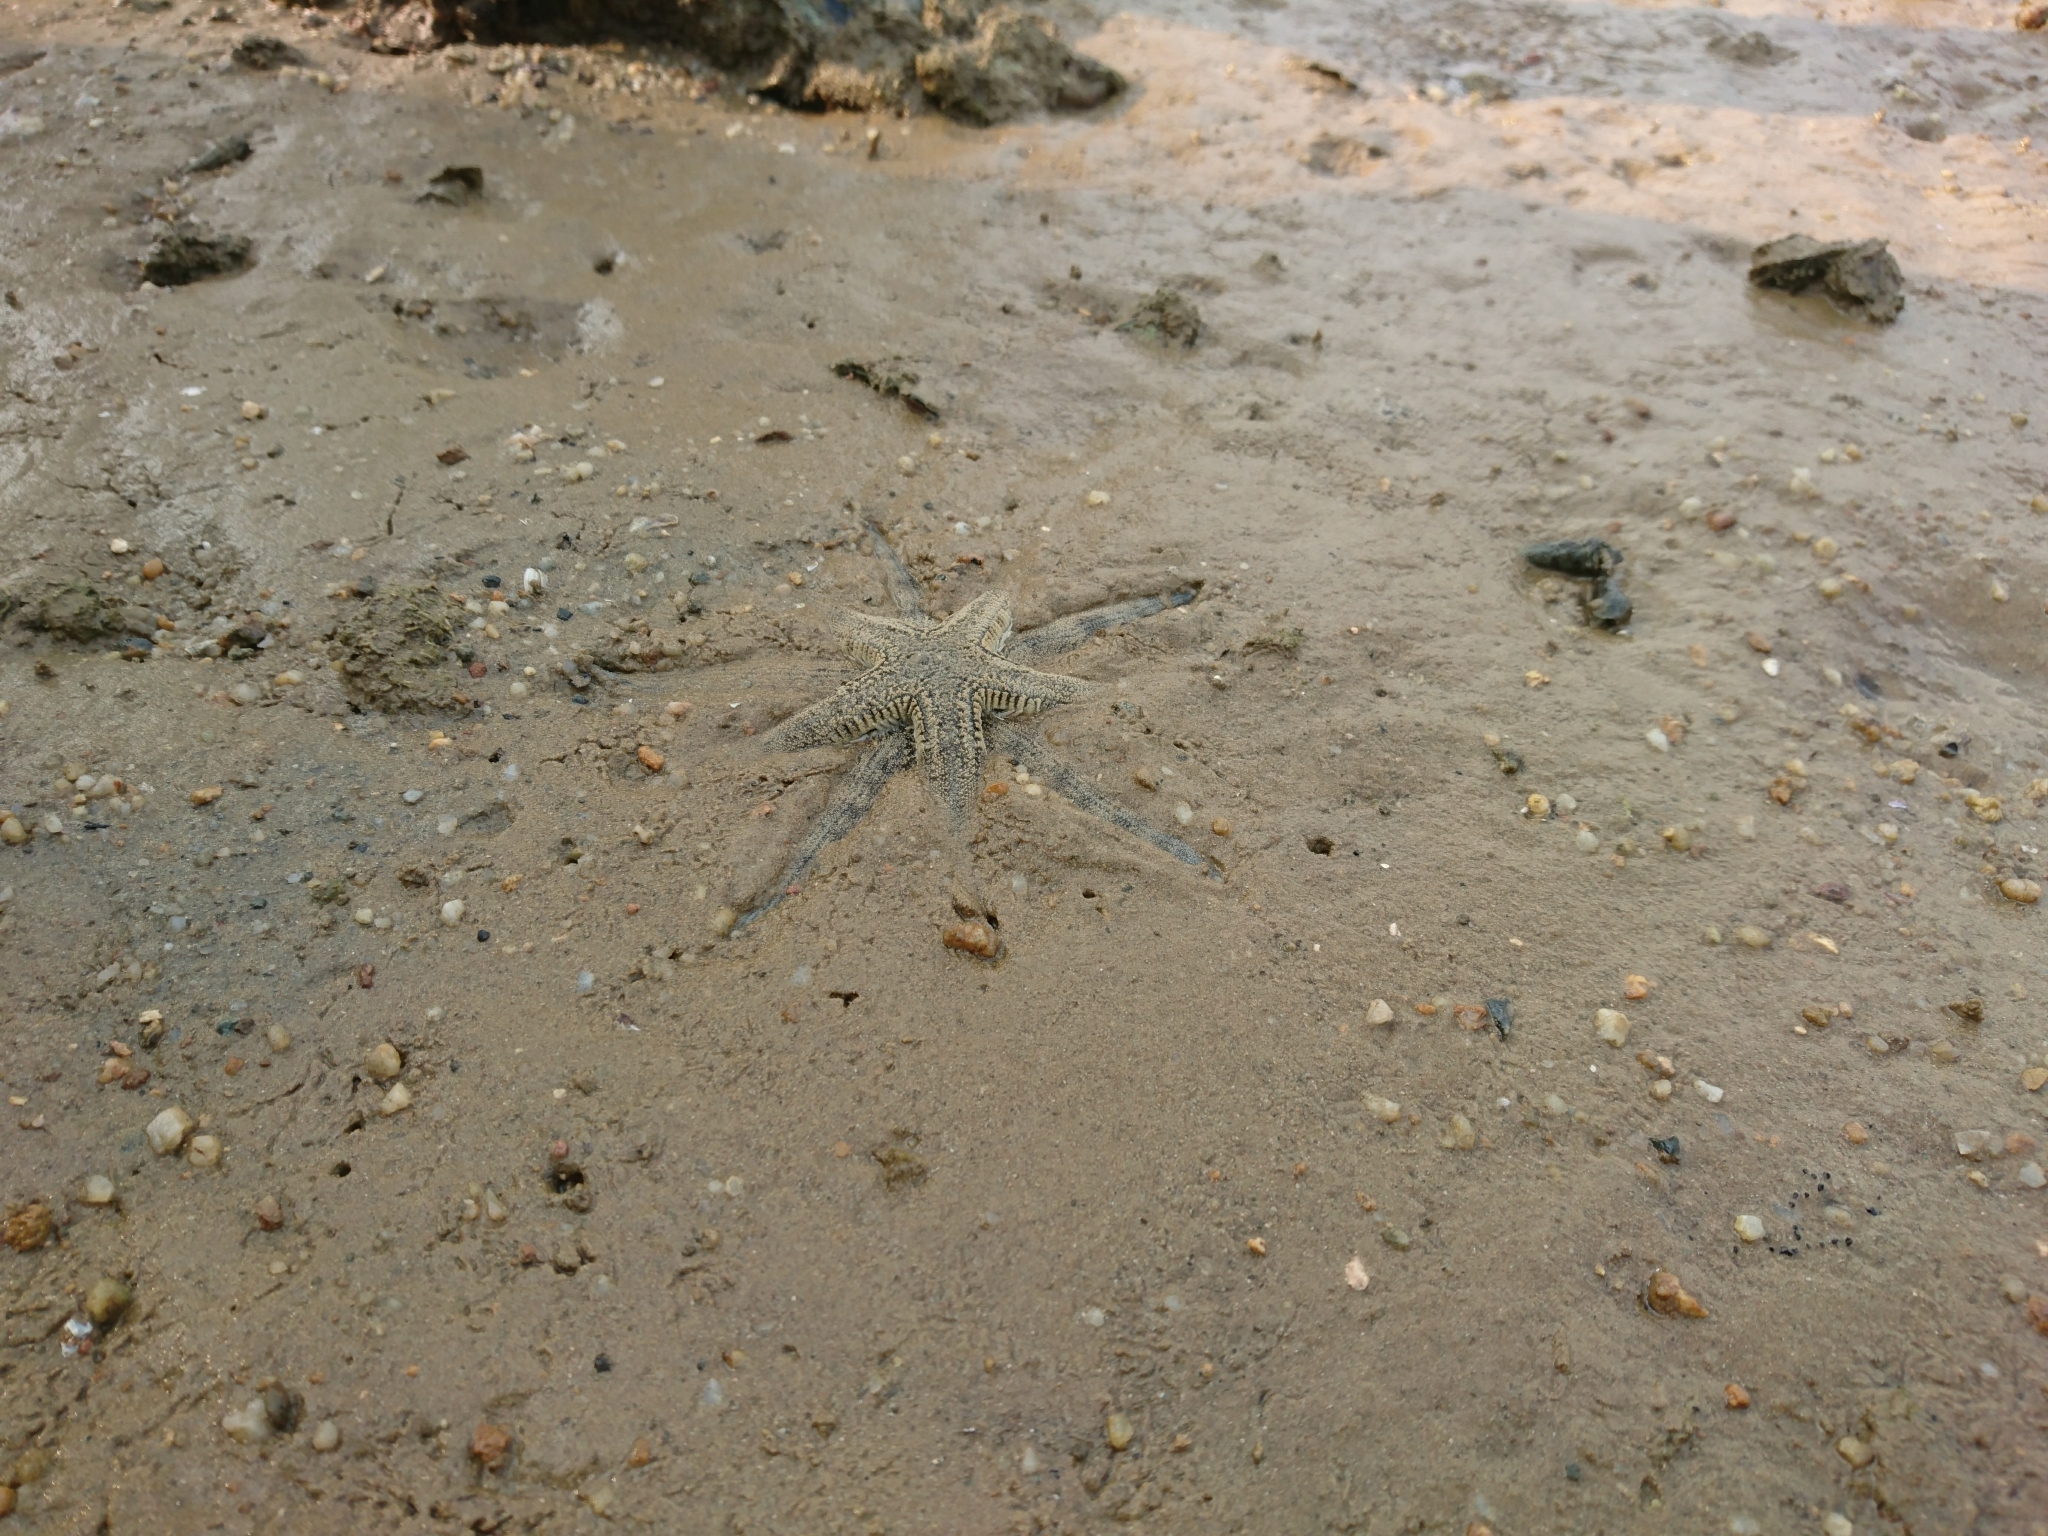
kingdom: Animalia
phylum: Echinodermata
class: Asteroidea
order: Valvatida
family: Archasteridae
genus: Archaster
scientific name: Archaster typicus
